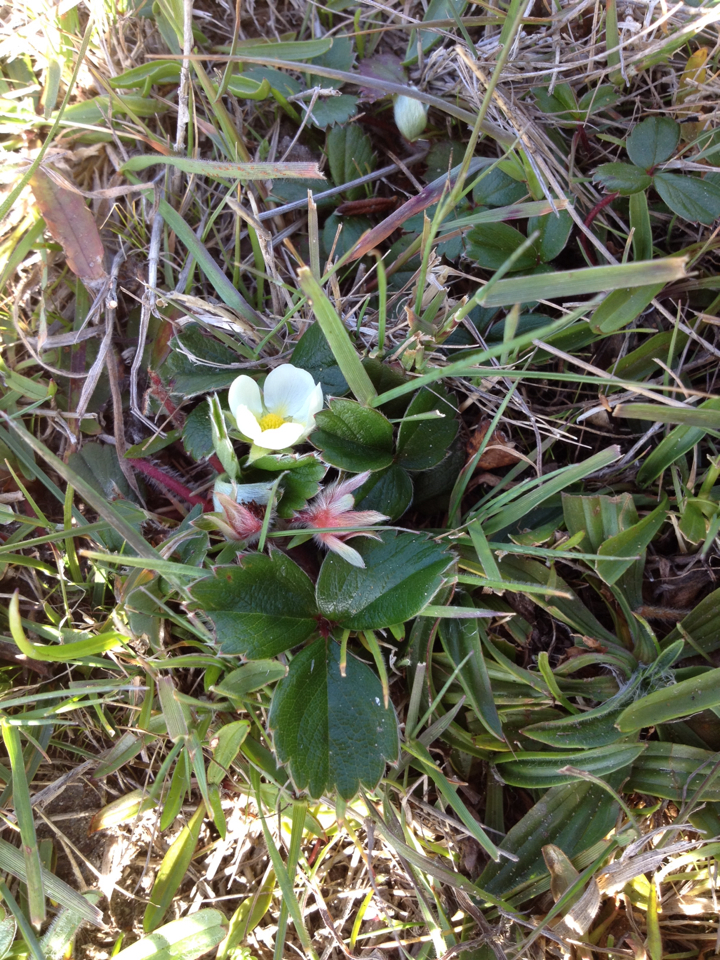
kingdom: Plantae
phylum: Tracheophyta
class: Magnoliopsida
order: Rosales
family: Rosaceae
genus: Fragaria
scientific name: Fragaria chiloensis
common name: Beach strawberry
